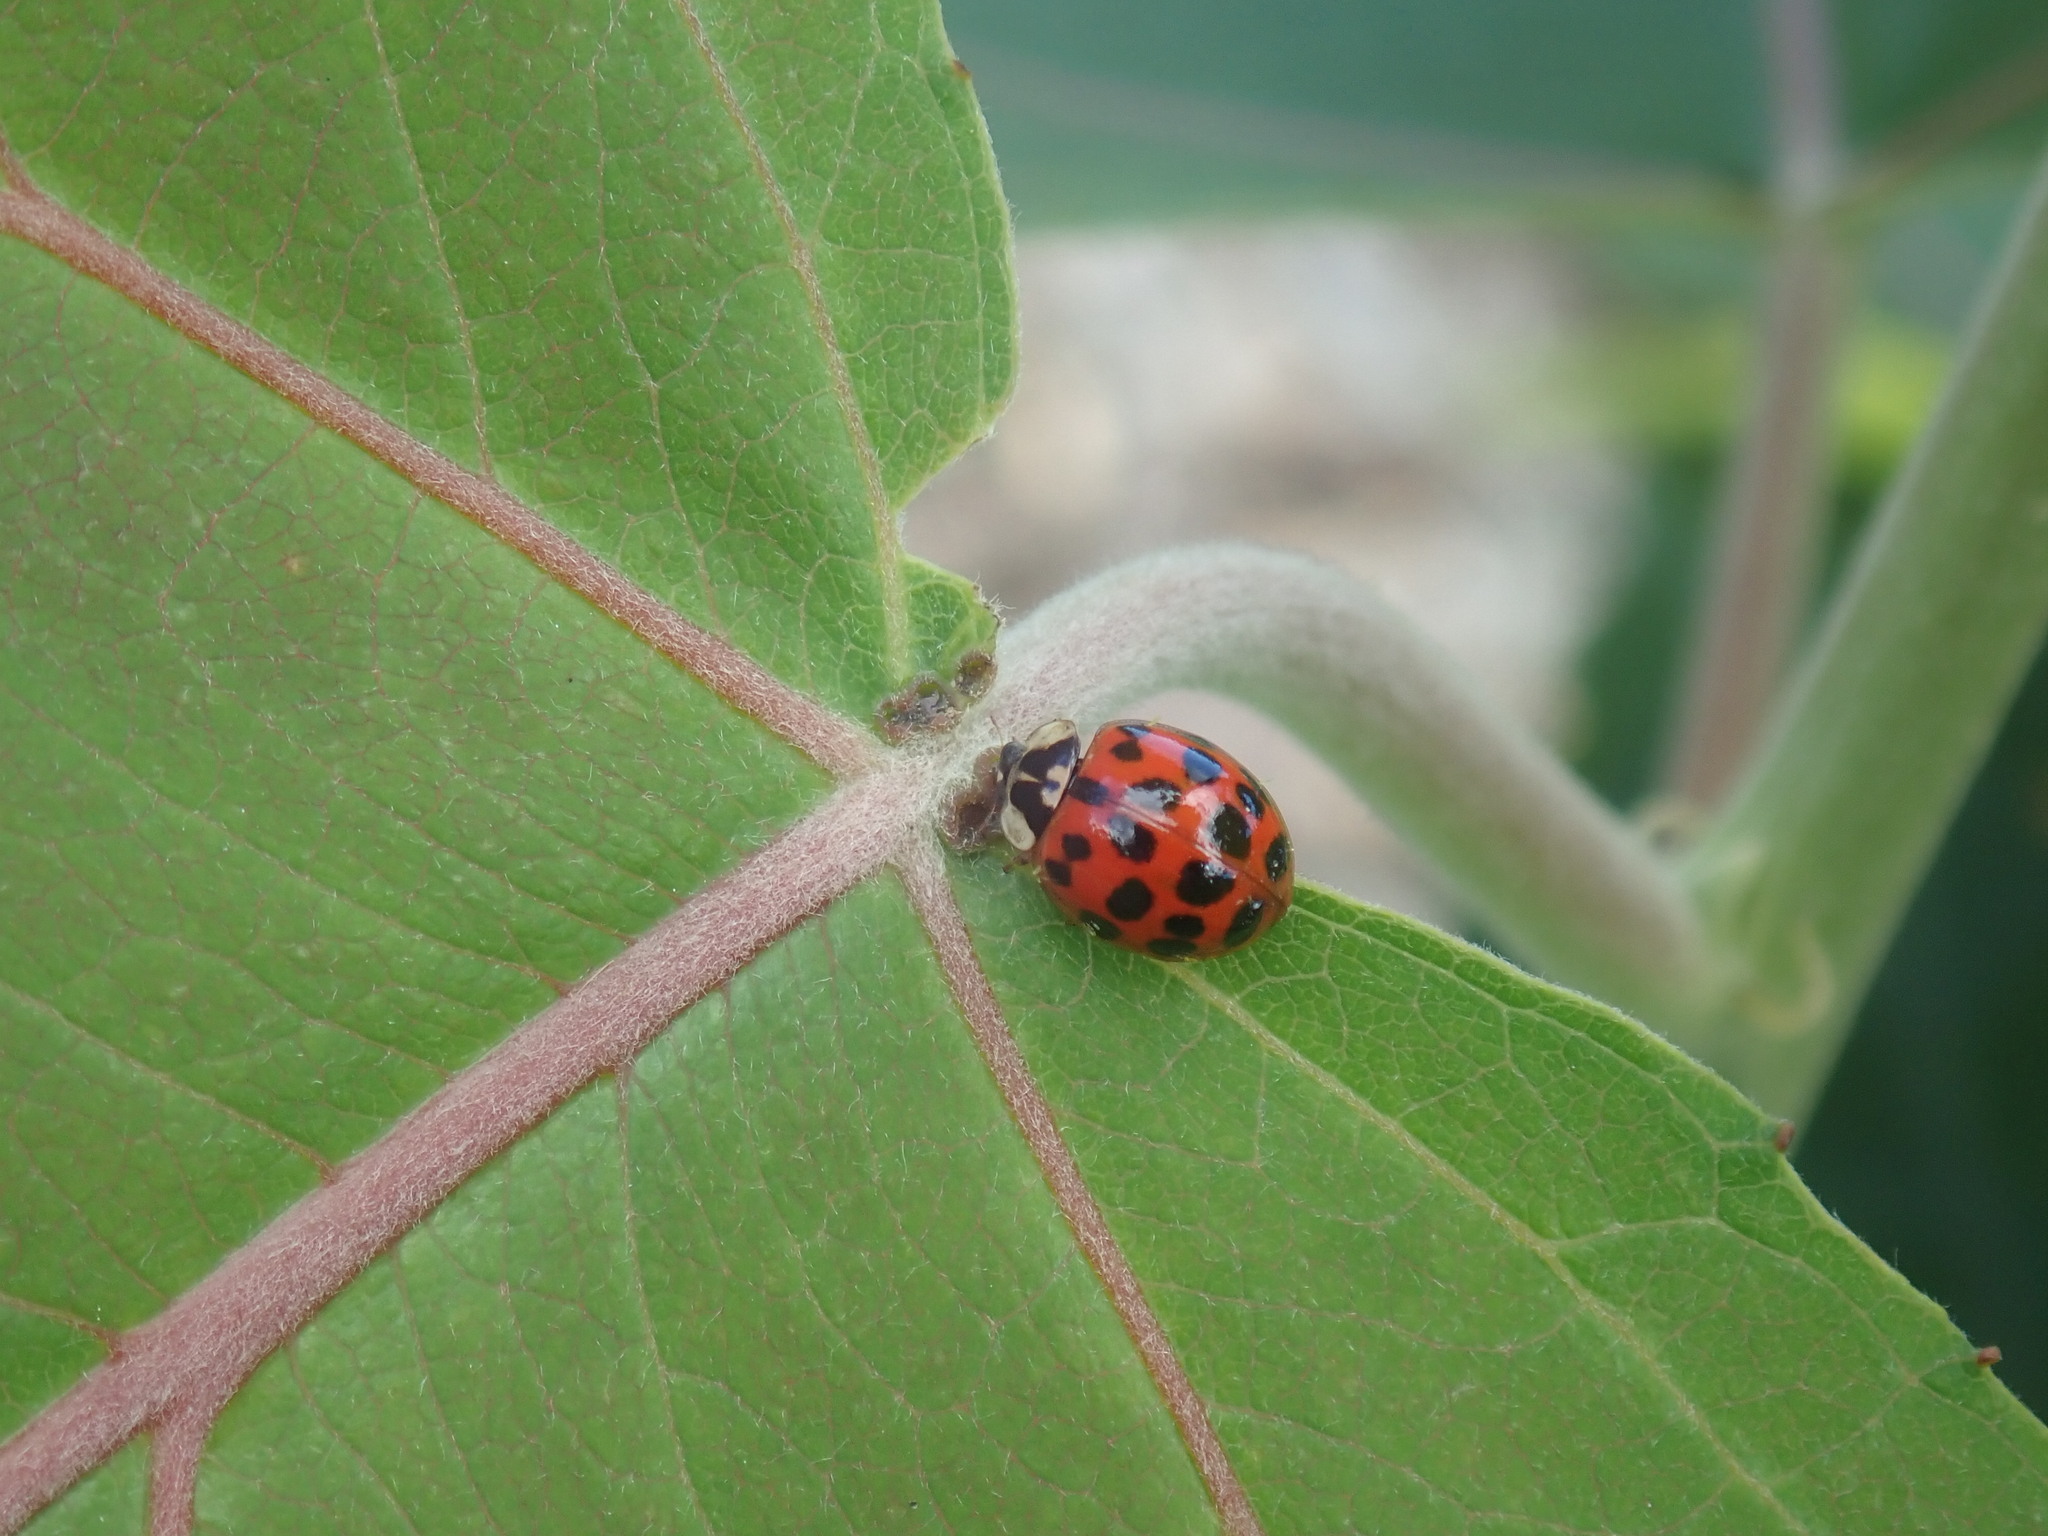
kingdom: Animalia
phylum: Arthropoda
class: Insecta
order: Coleoptera
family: Coccinellidae
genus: Harmonia
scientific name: Harmonia axyridis
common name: Harlequin ladybird
